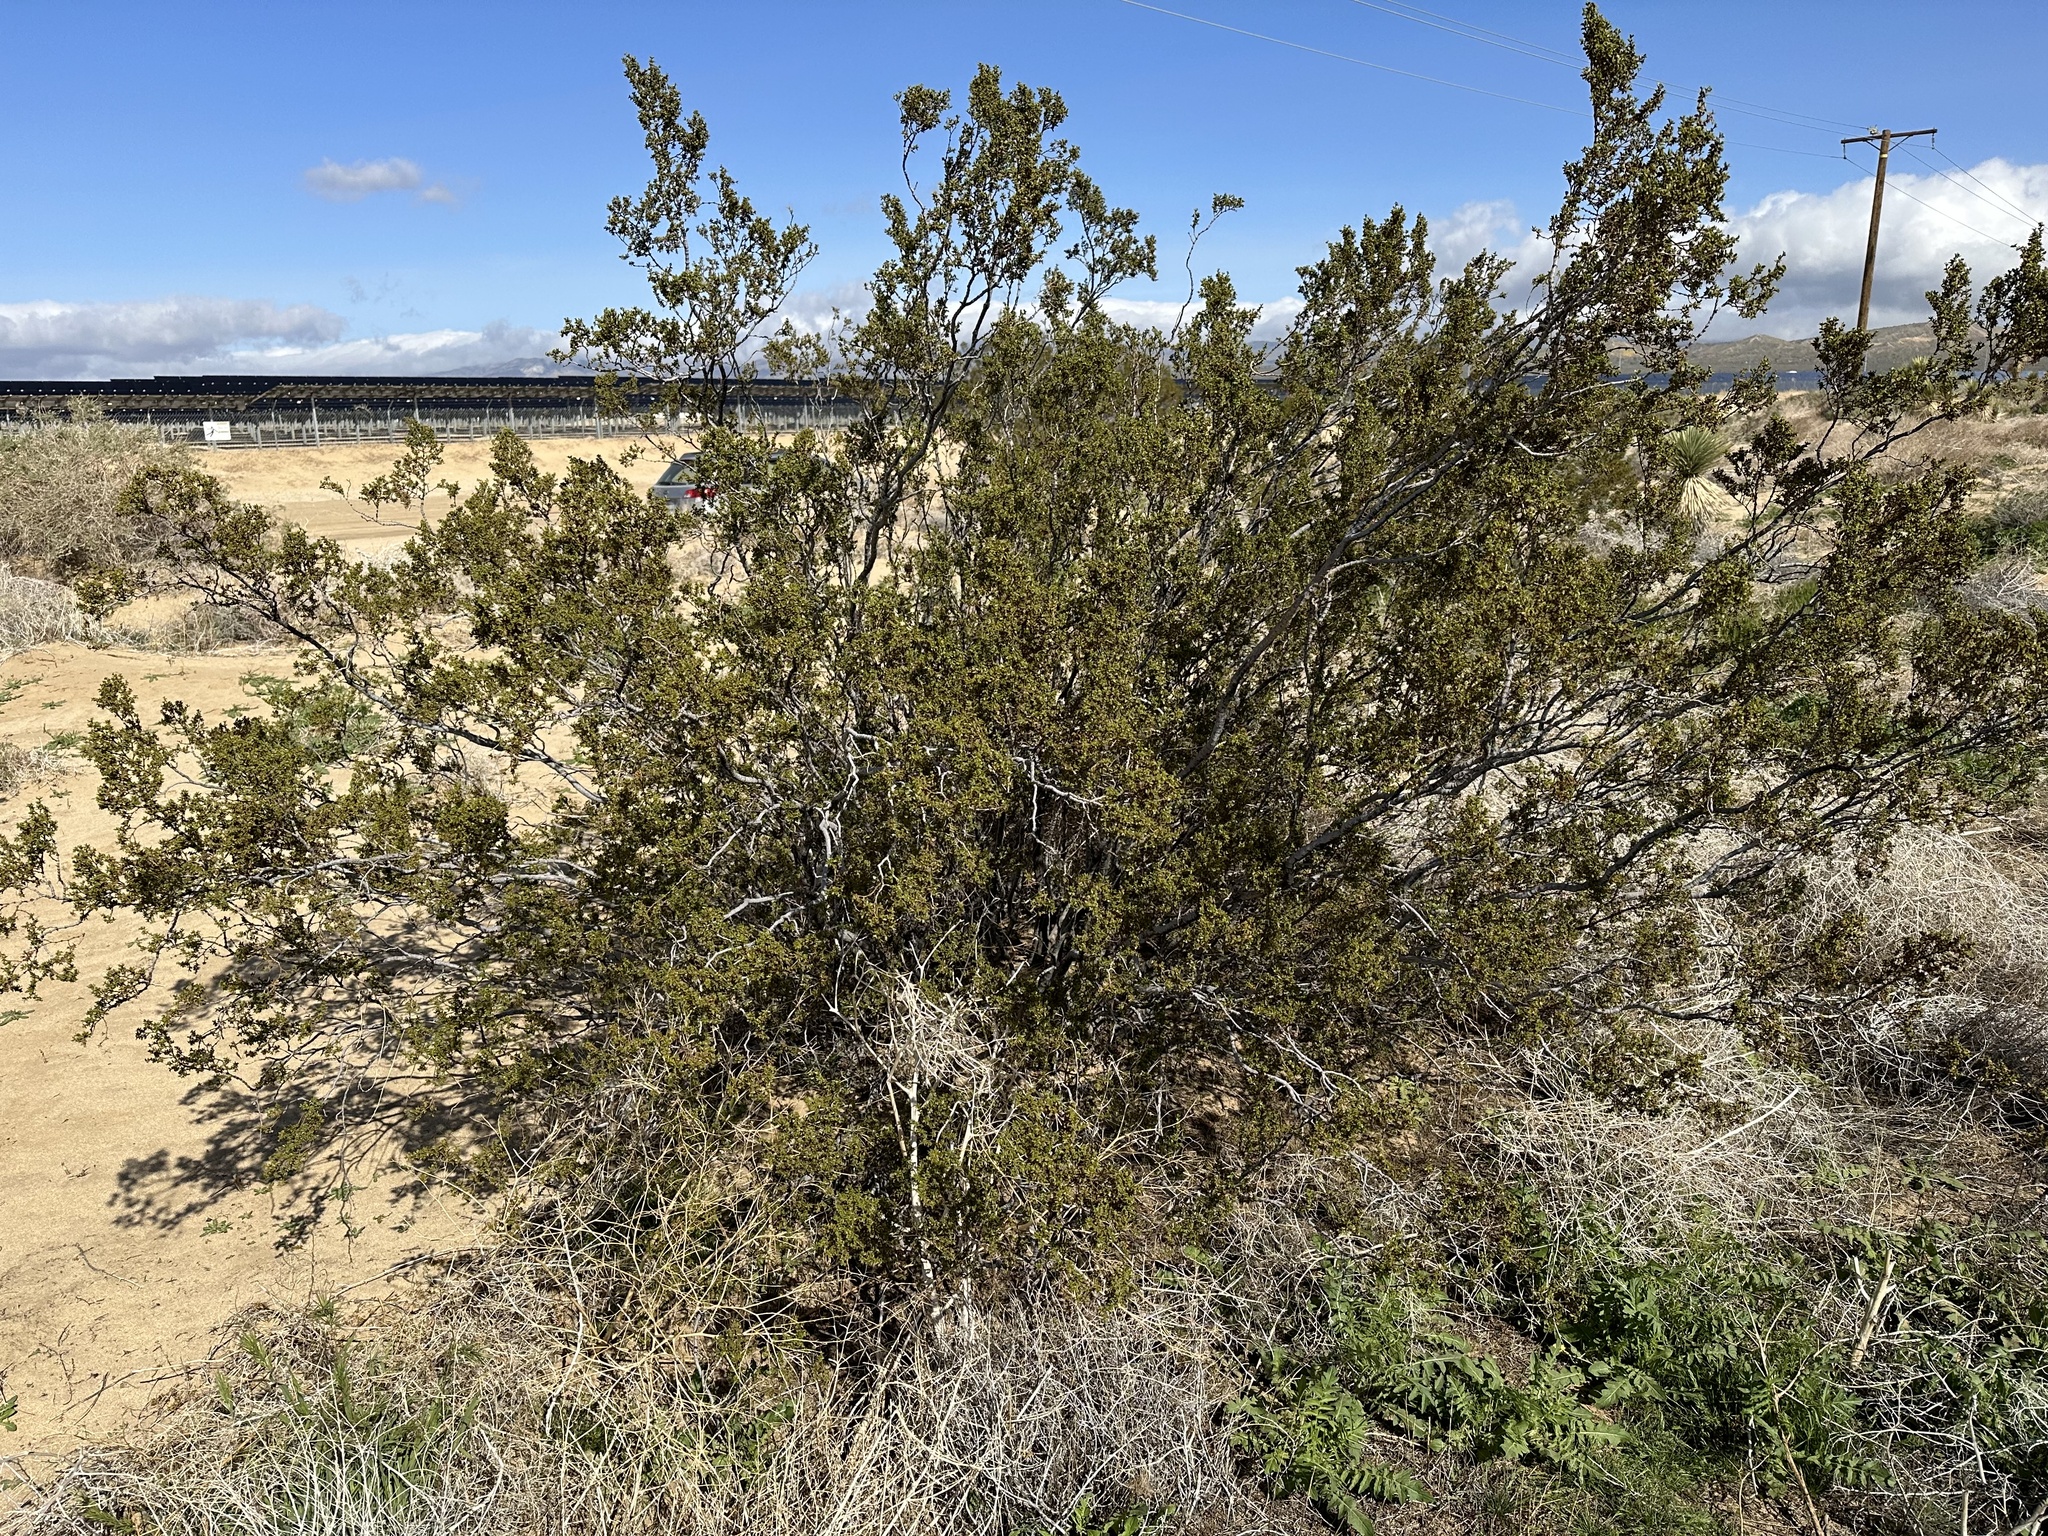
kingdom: Plantae
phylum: Tracheophyta
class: Magnoliopsida
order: Zygophyllales
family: Zygophyllaceae
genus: Larrea
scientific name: Larrea tridentata
